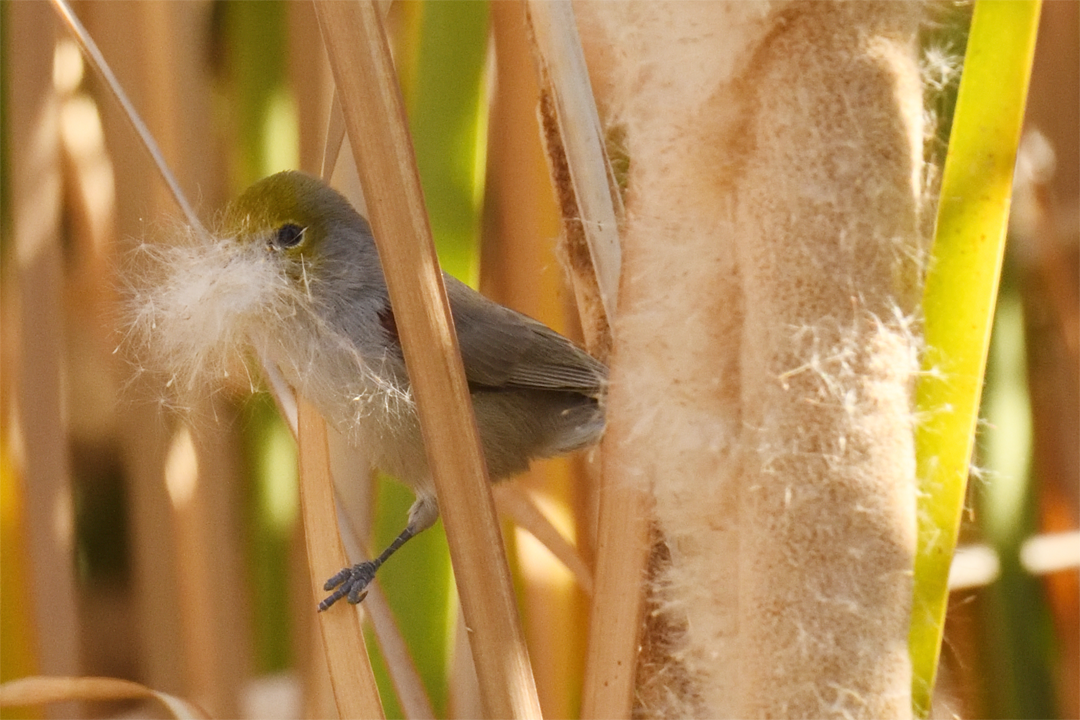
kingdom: Animalia
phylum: Chordata
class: Aves
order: Passeriformes
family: Remizidae
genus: Auriparus
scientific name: Auriparus flaviceps
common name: Verdin
